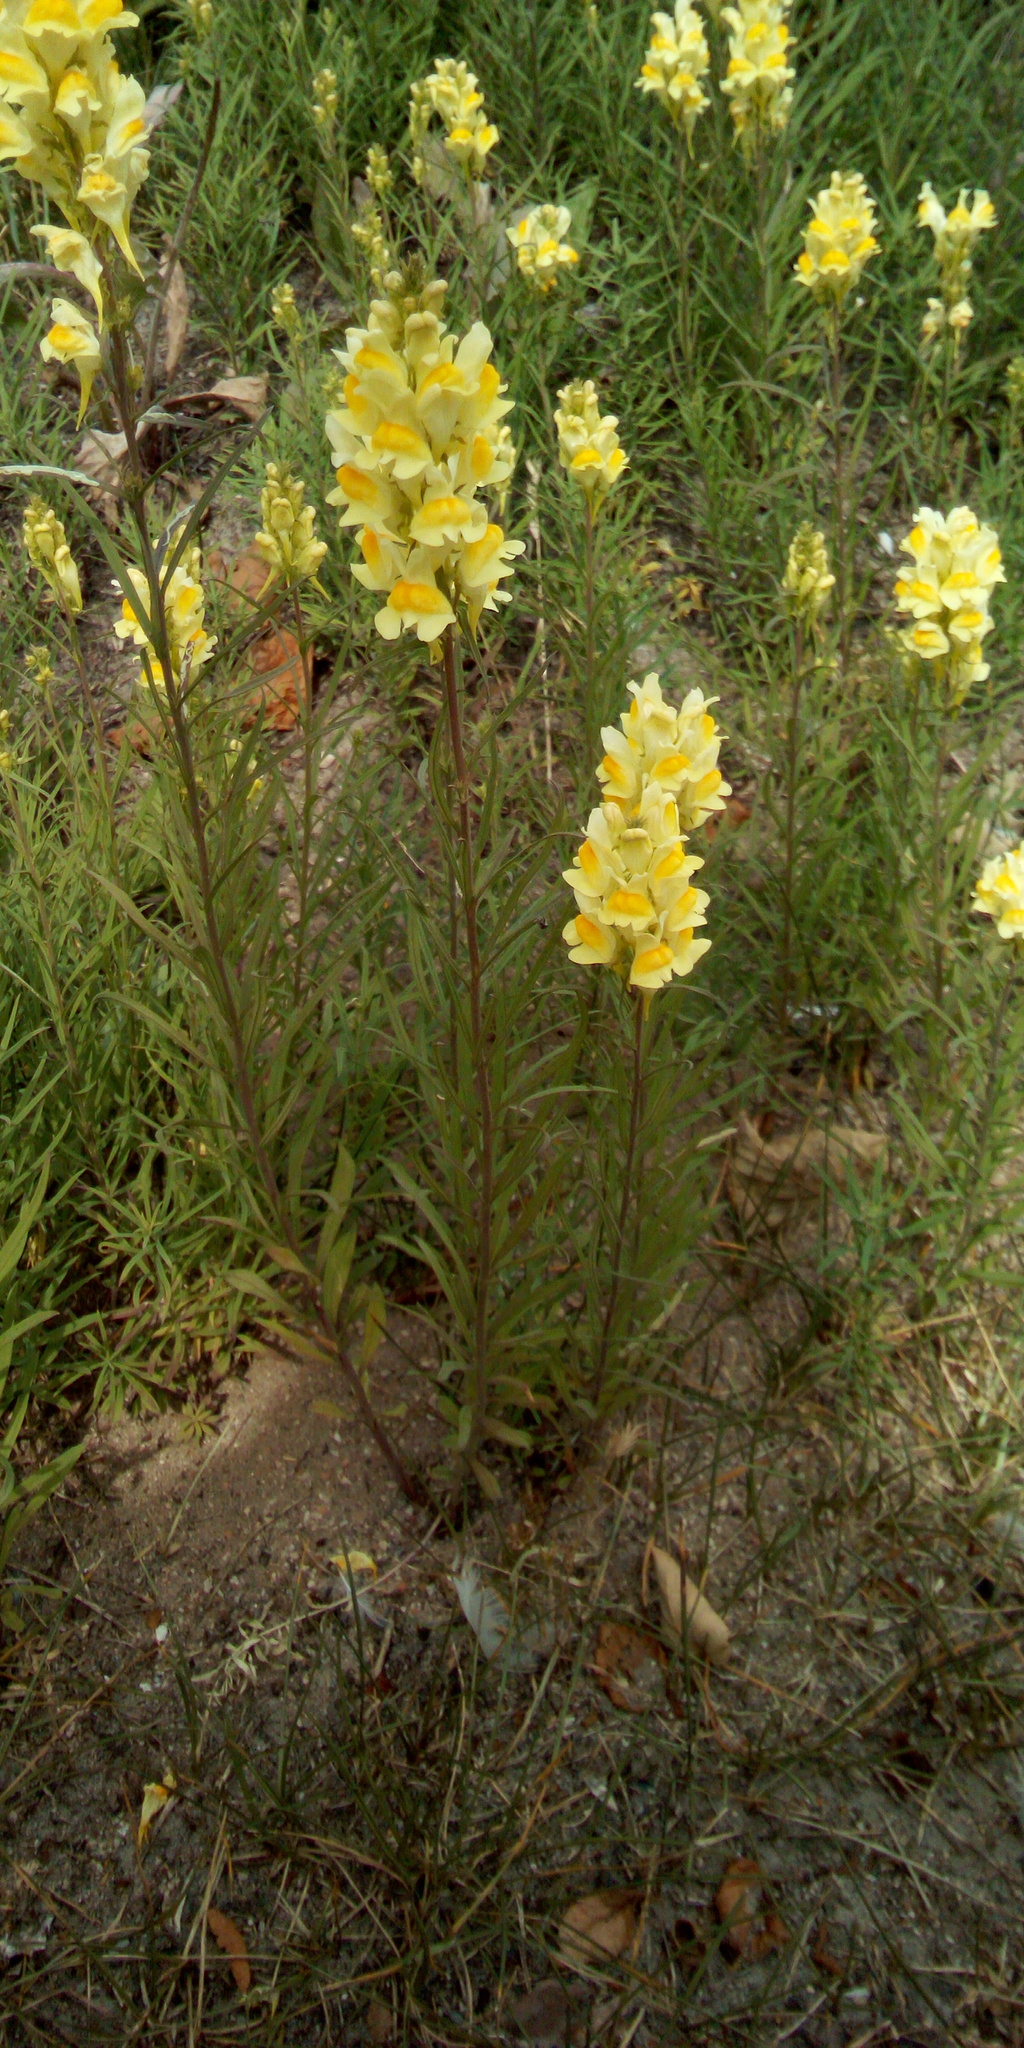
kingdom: Plantae
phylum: Tracheophyta
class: Magnoliopsida
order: Lamiales
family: Plantaginaceae
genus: Linaria
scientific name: Linaria vulgaris
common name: Butter and eggs
